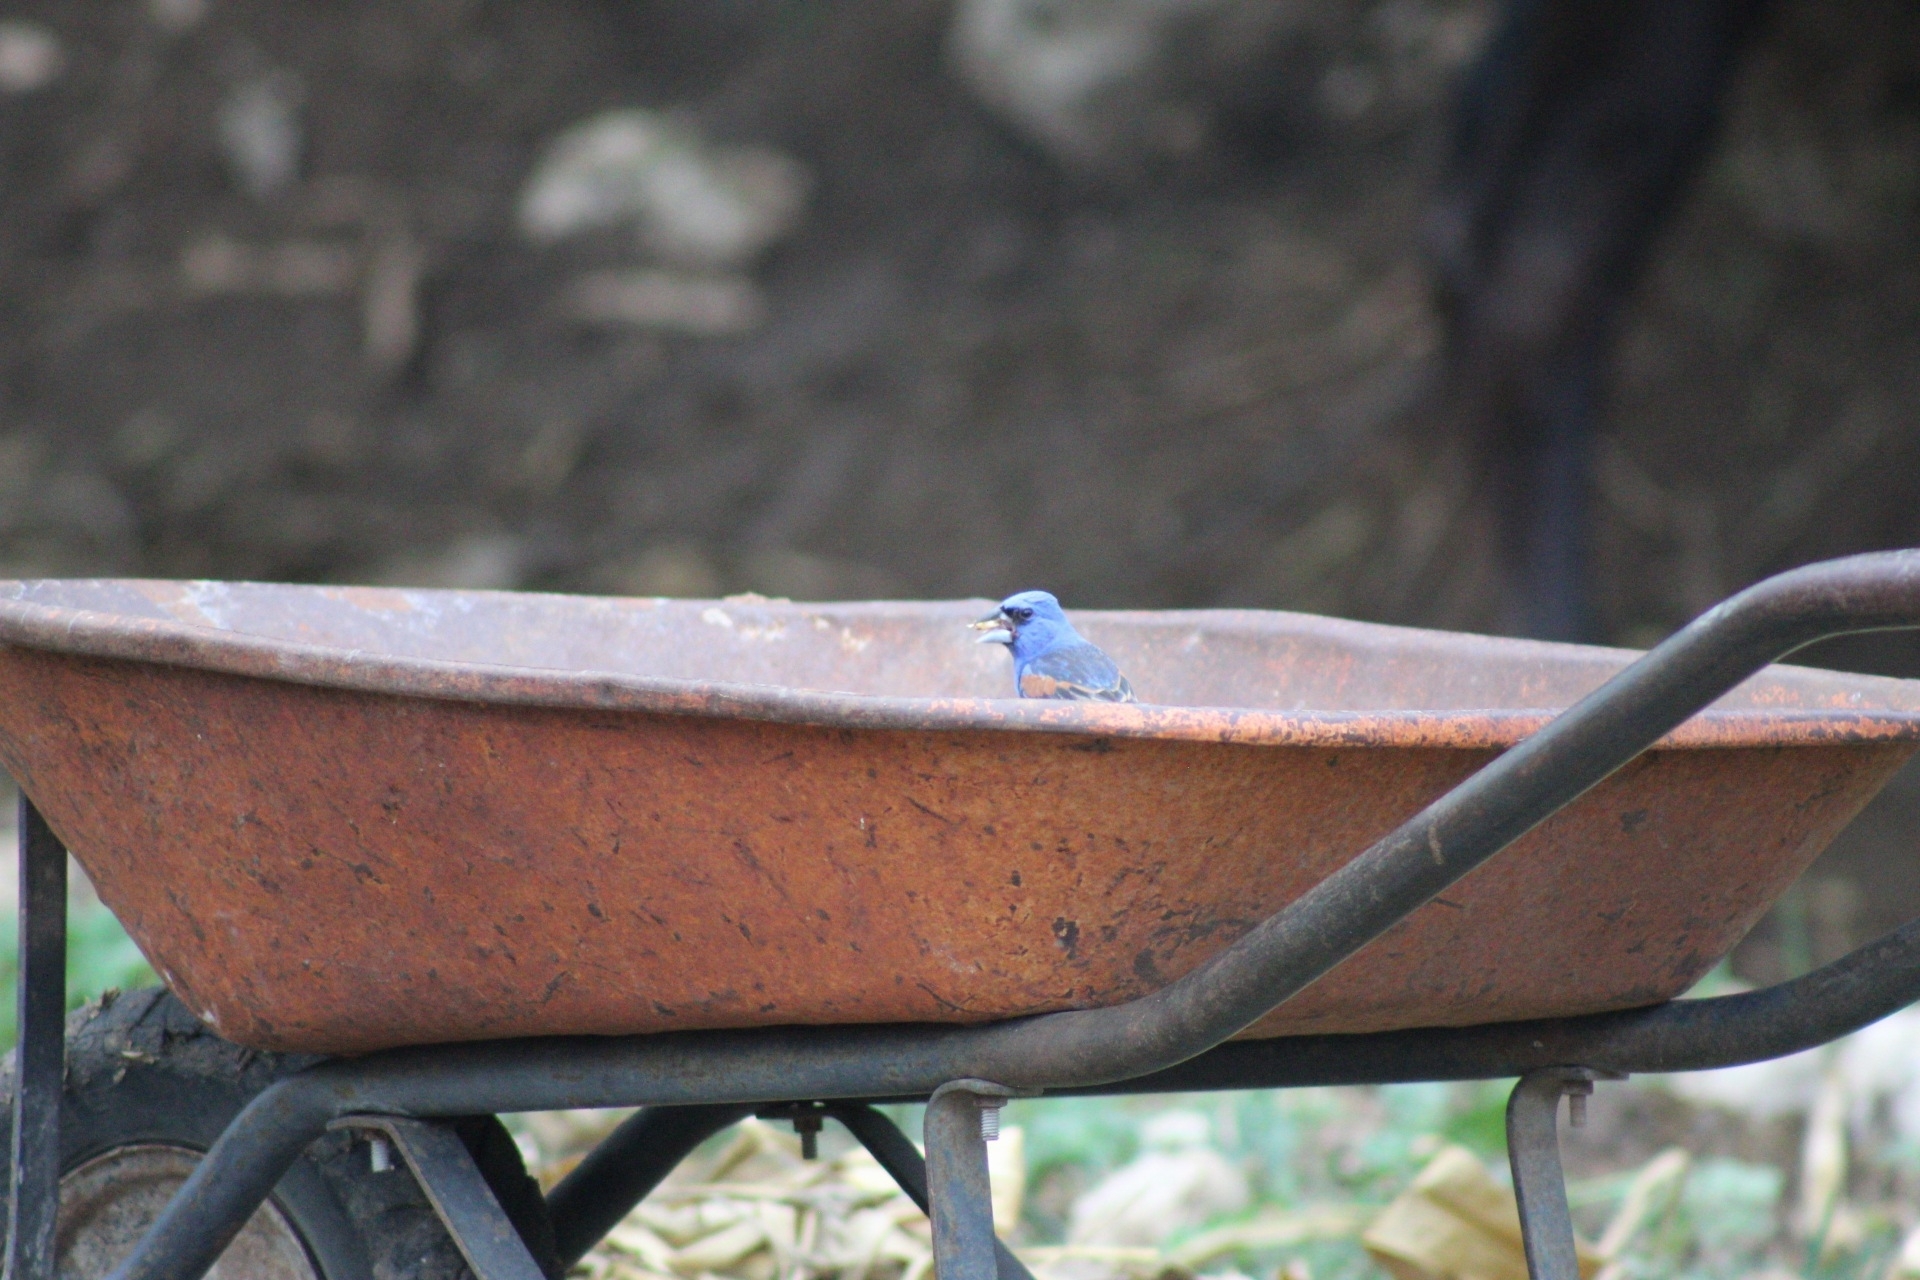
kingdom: Animalia
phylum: Chordata
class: Aves
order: Passeriformes
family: Cardinalidae
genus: Passerina
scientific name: Passerina caerulea
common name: Blue grosbeak
